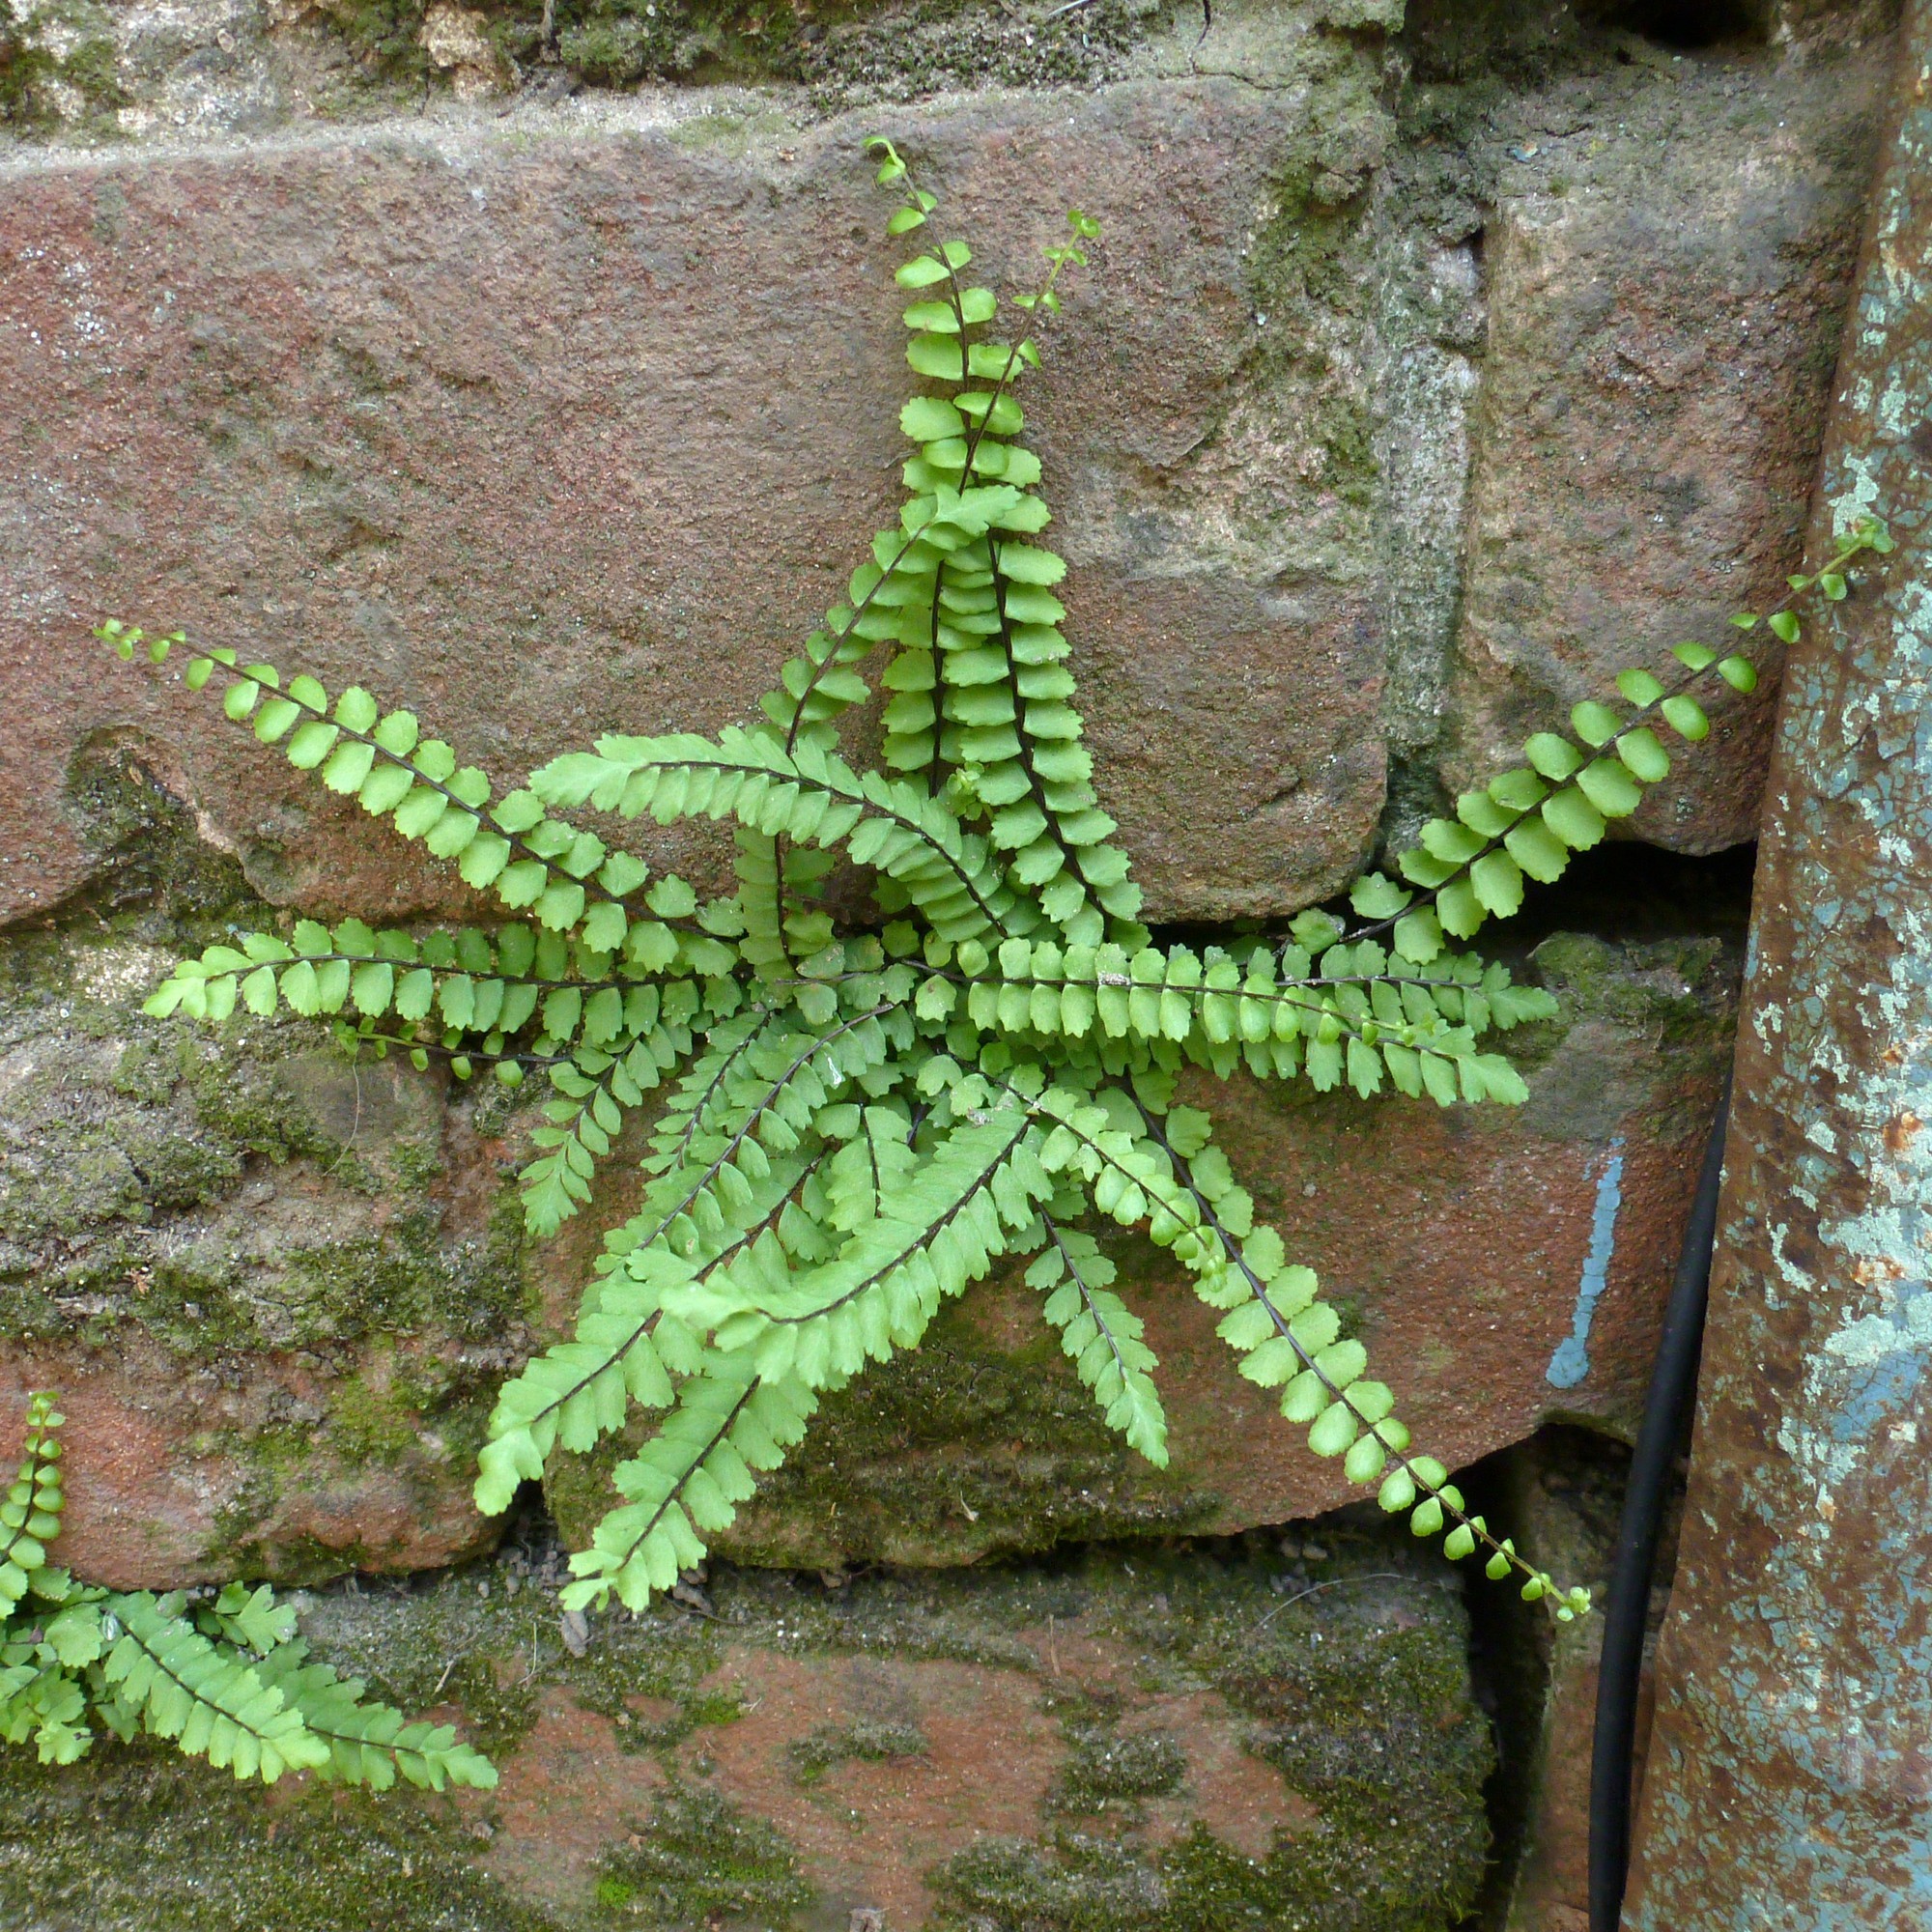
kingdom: Plantae
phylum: Tracheophyta
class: Polypodiopsida
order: Polypodiales
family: Aspleniaceae
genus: Asplenium
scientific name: Asplenium trichomanes
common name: Maidenhair spleenwort
